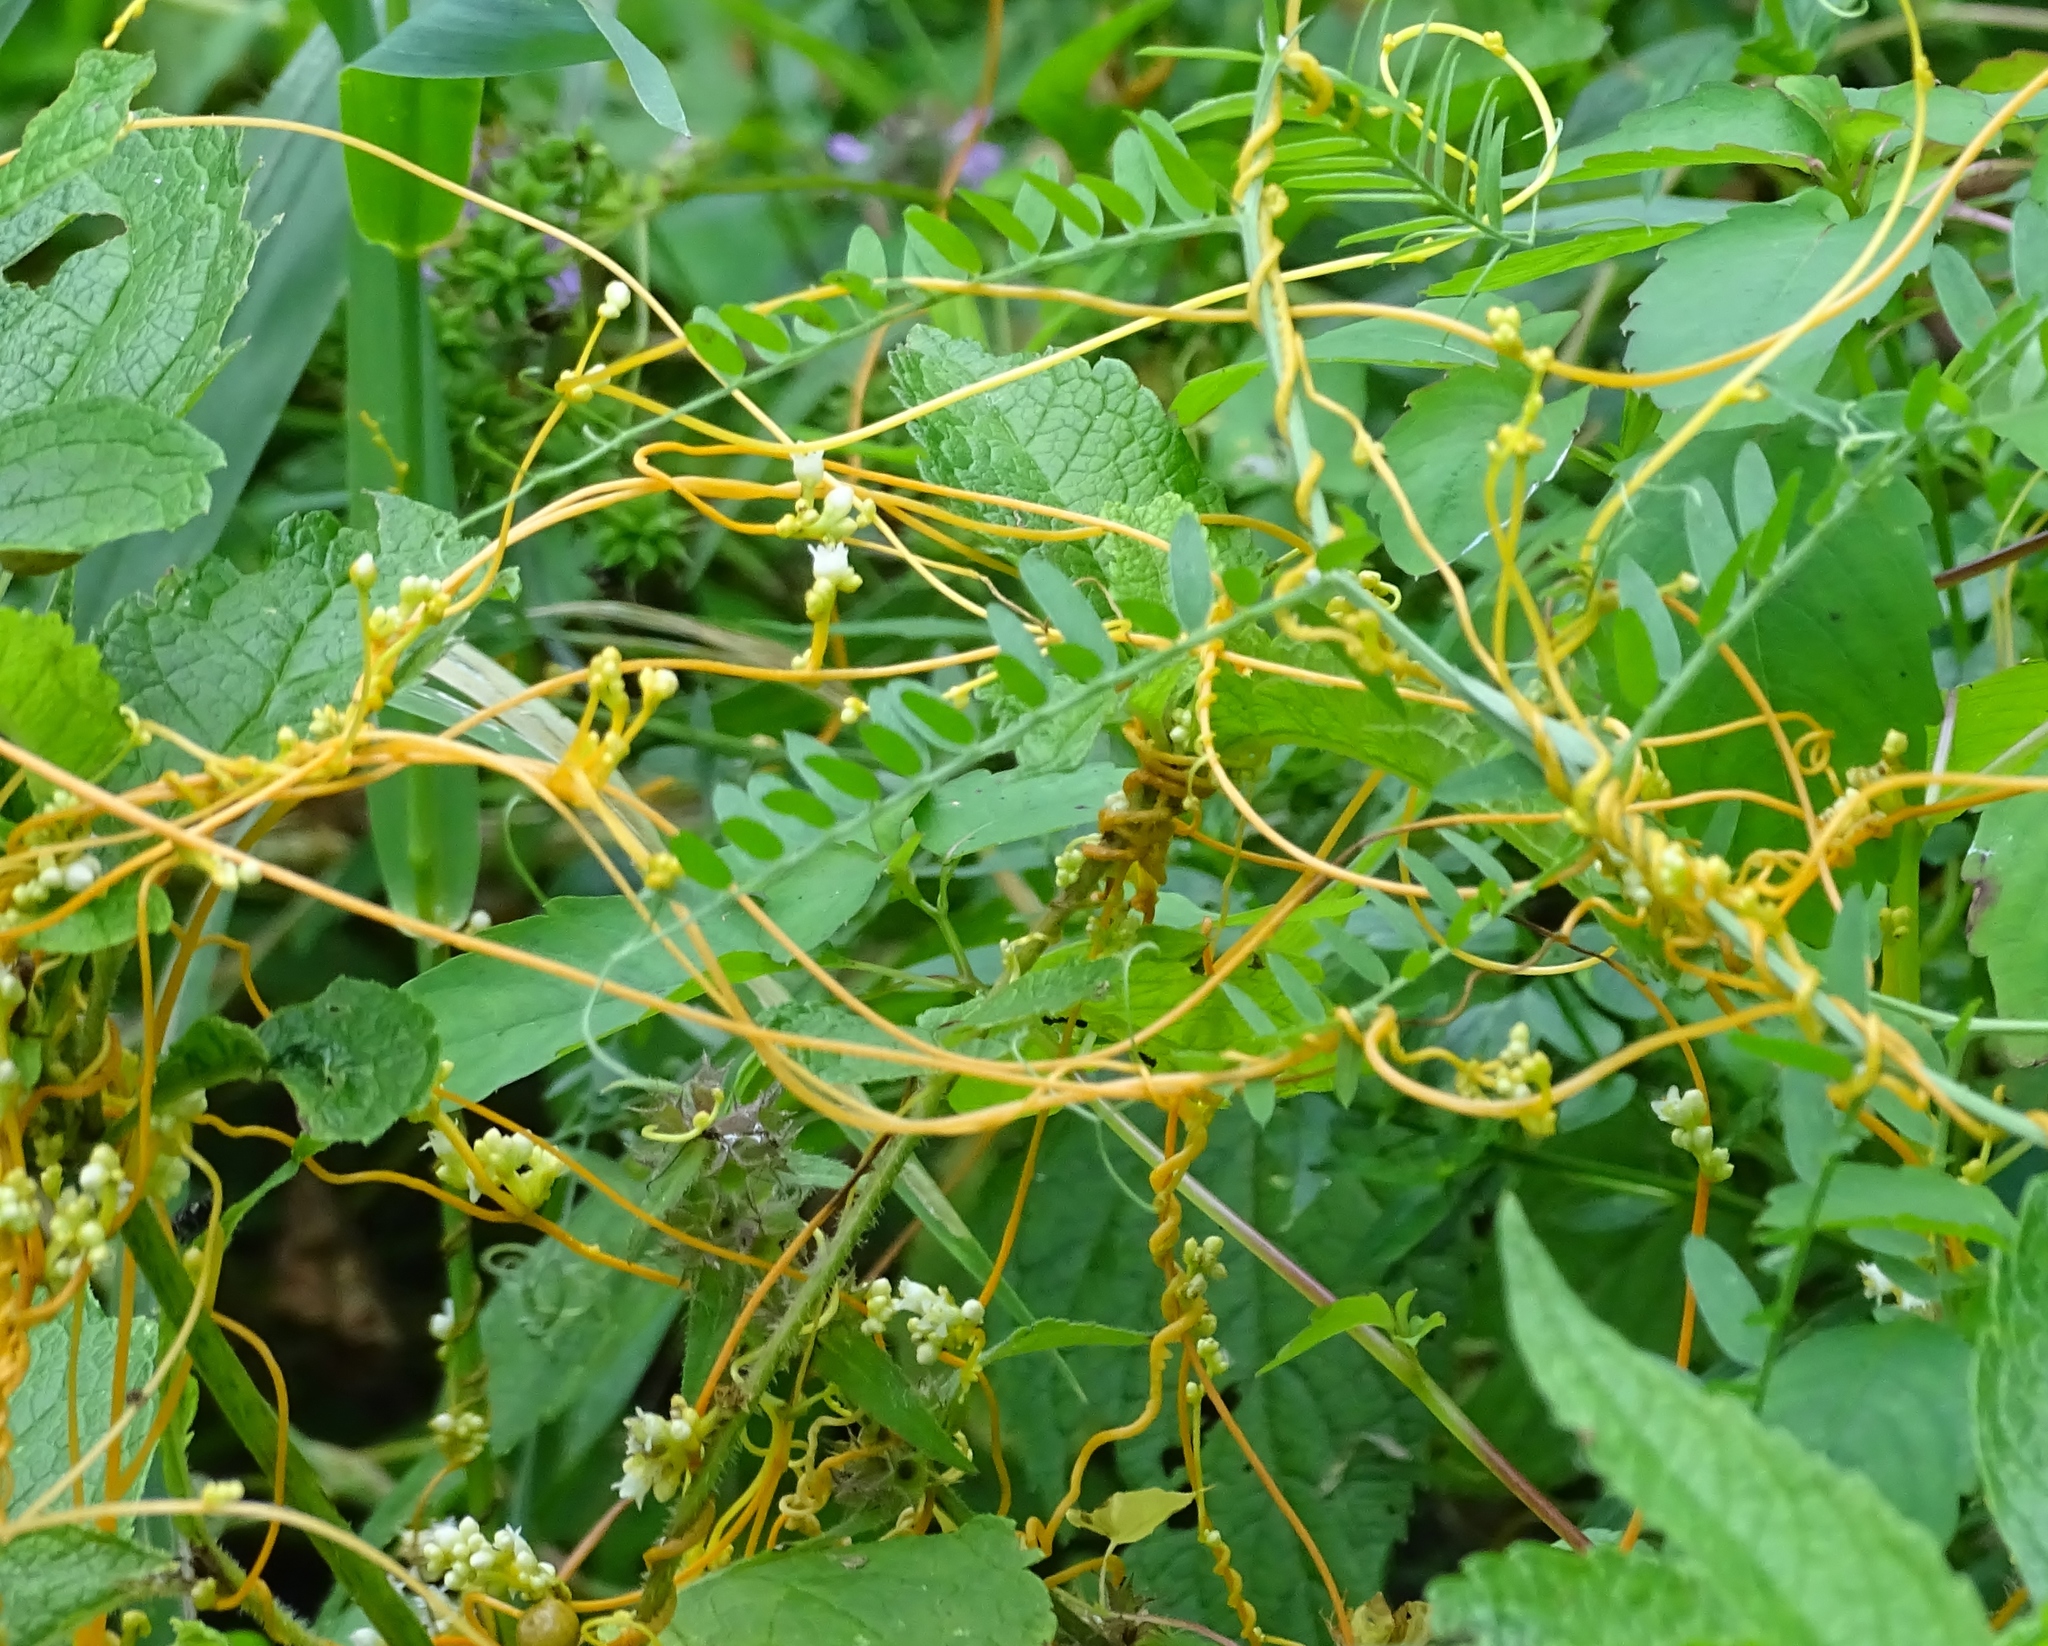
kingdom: Plantae
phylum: Tracheophyta
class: Magnoliopsida
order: Solanales
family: Convolvulaceae
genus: Cuscuta
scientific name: Cuscuta gronovii
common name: Common dodder
